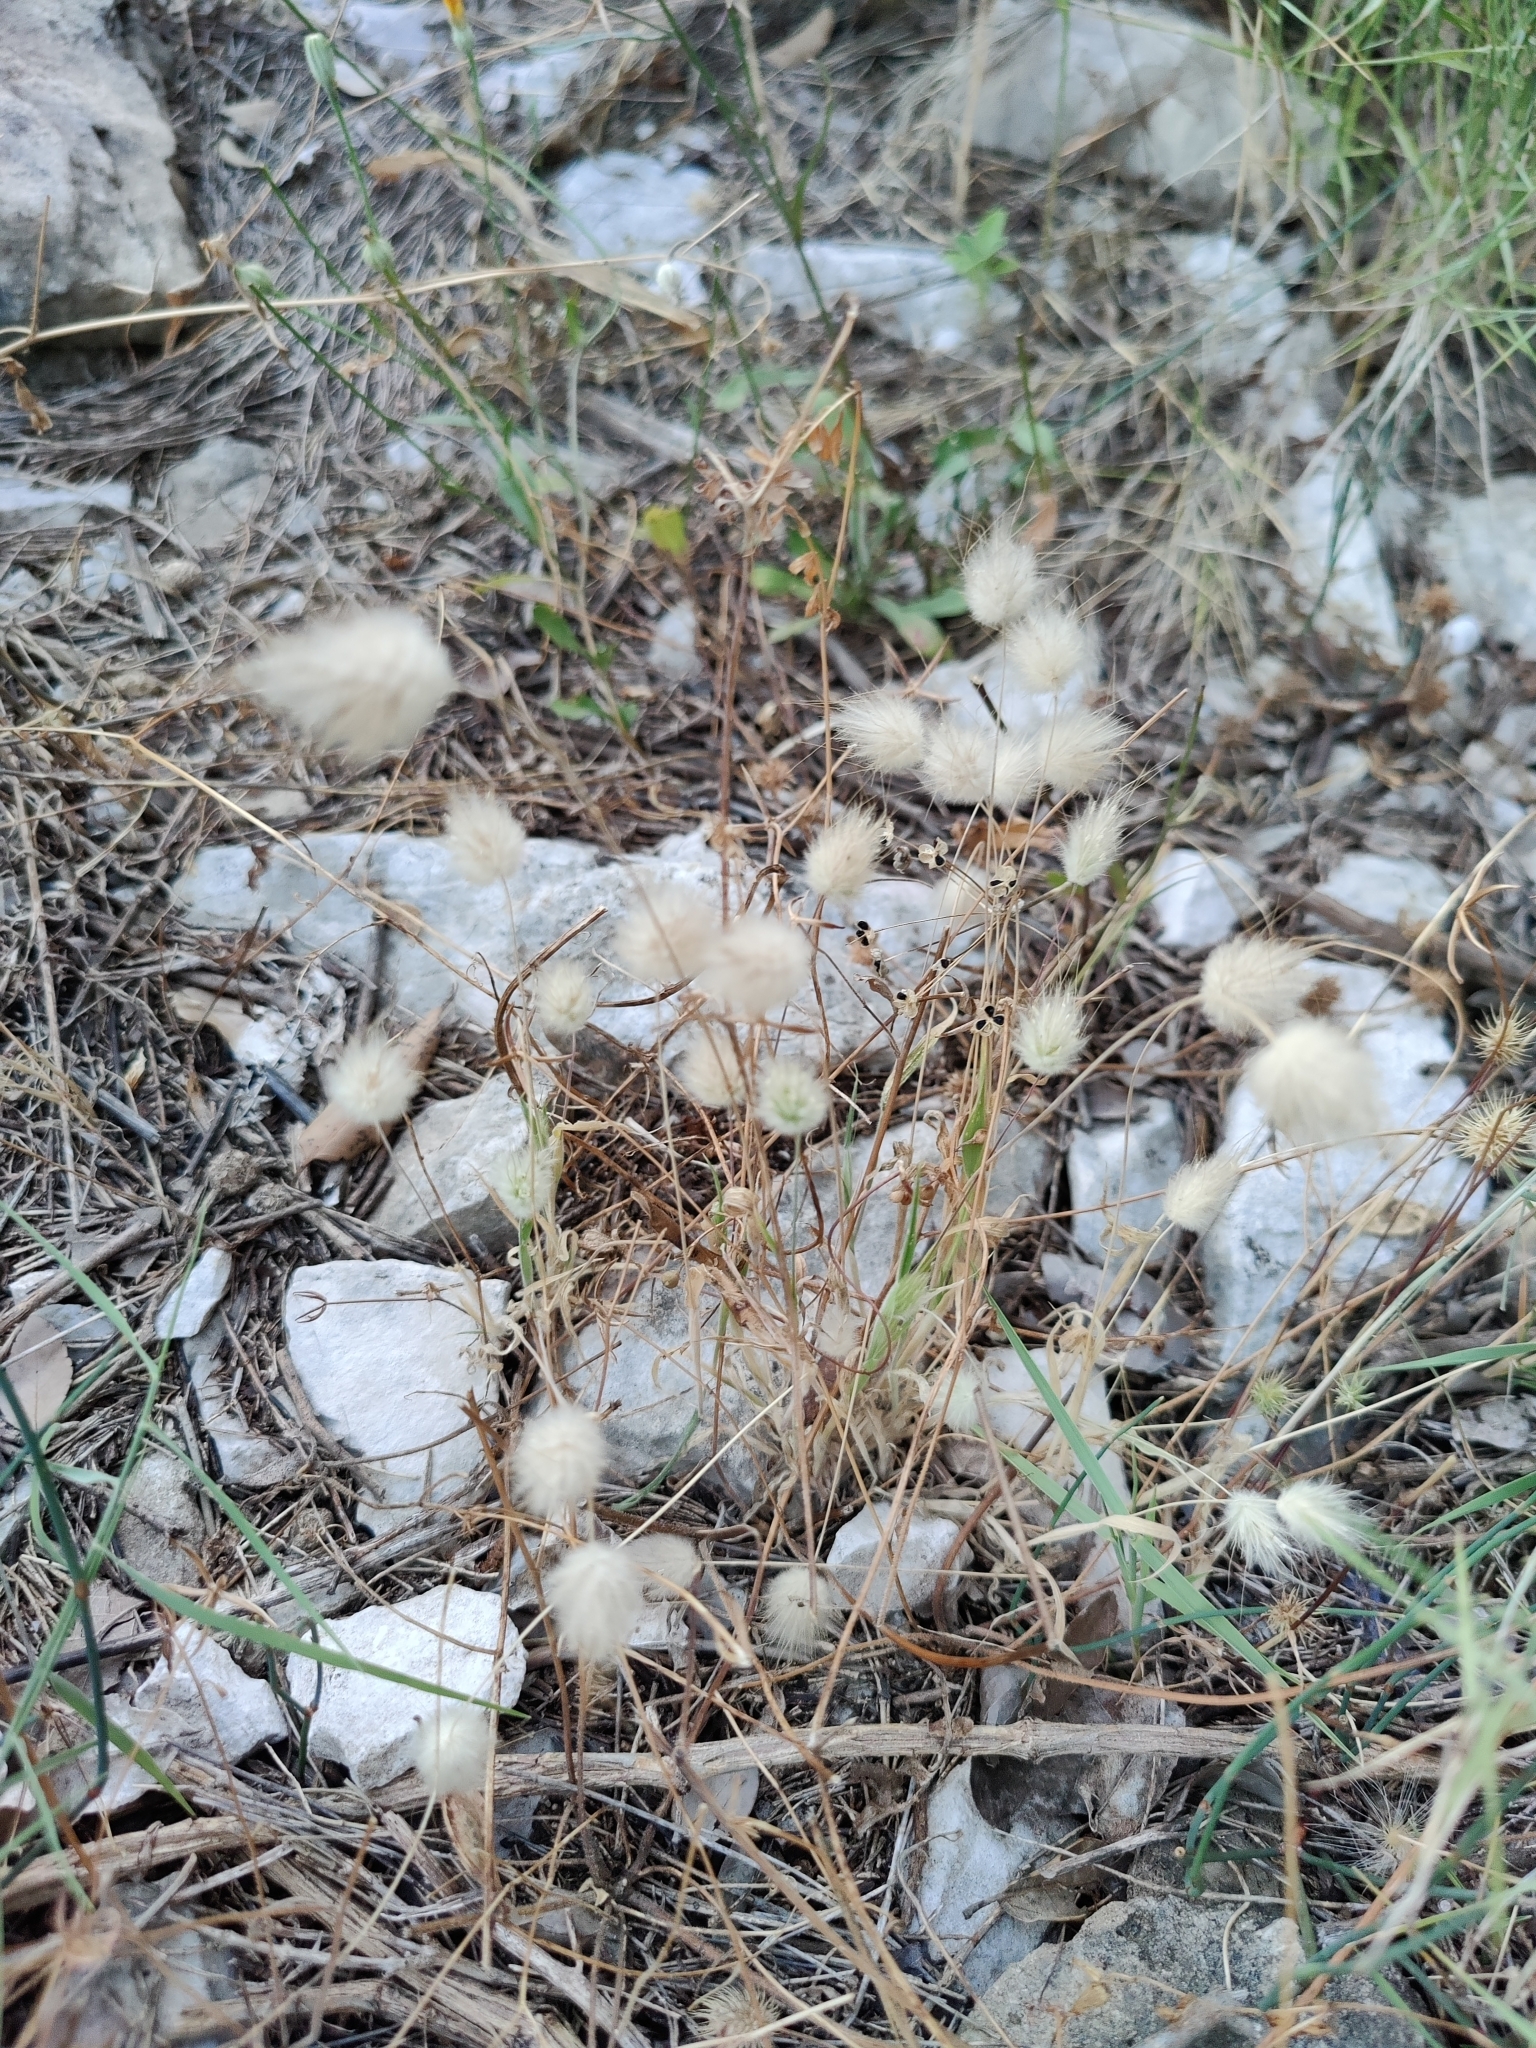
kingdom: Plantae
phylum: Tracheophyta
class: Liliopsida
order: Poales
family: Poaceae
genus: Lagurus
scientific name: Lagurus ovatus
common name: Hare's-tail
